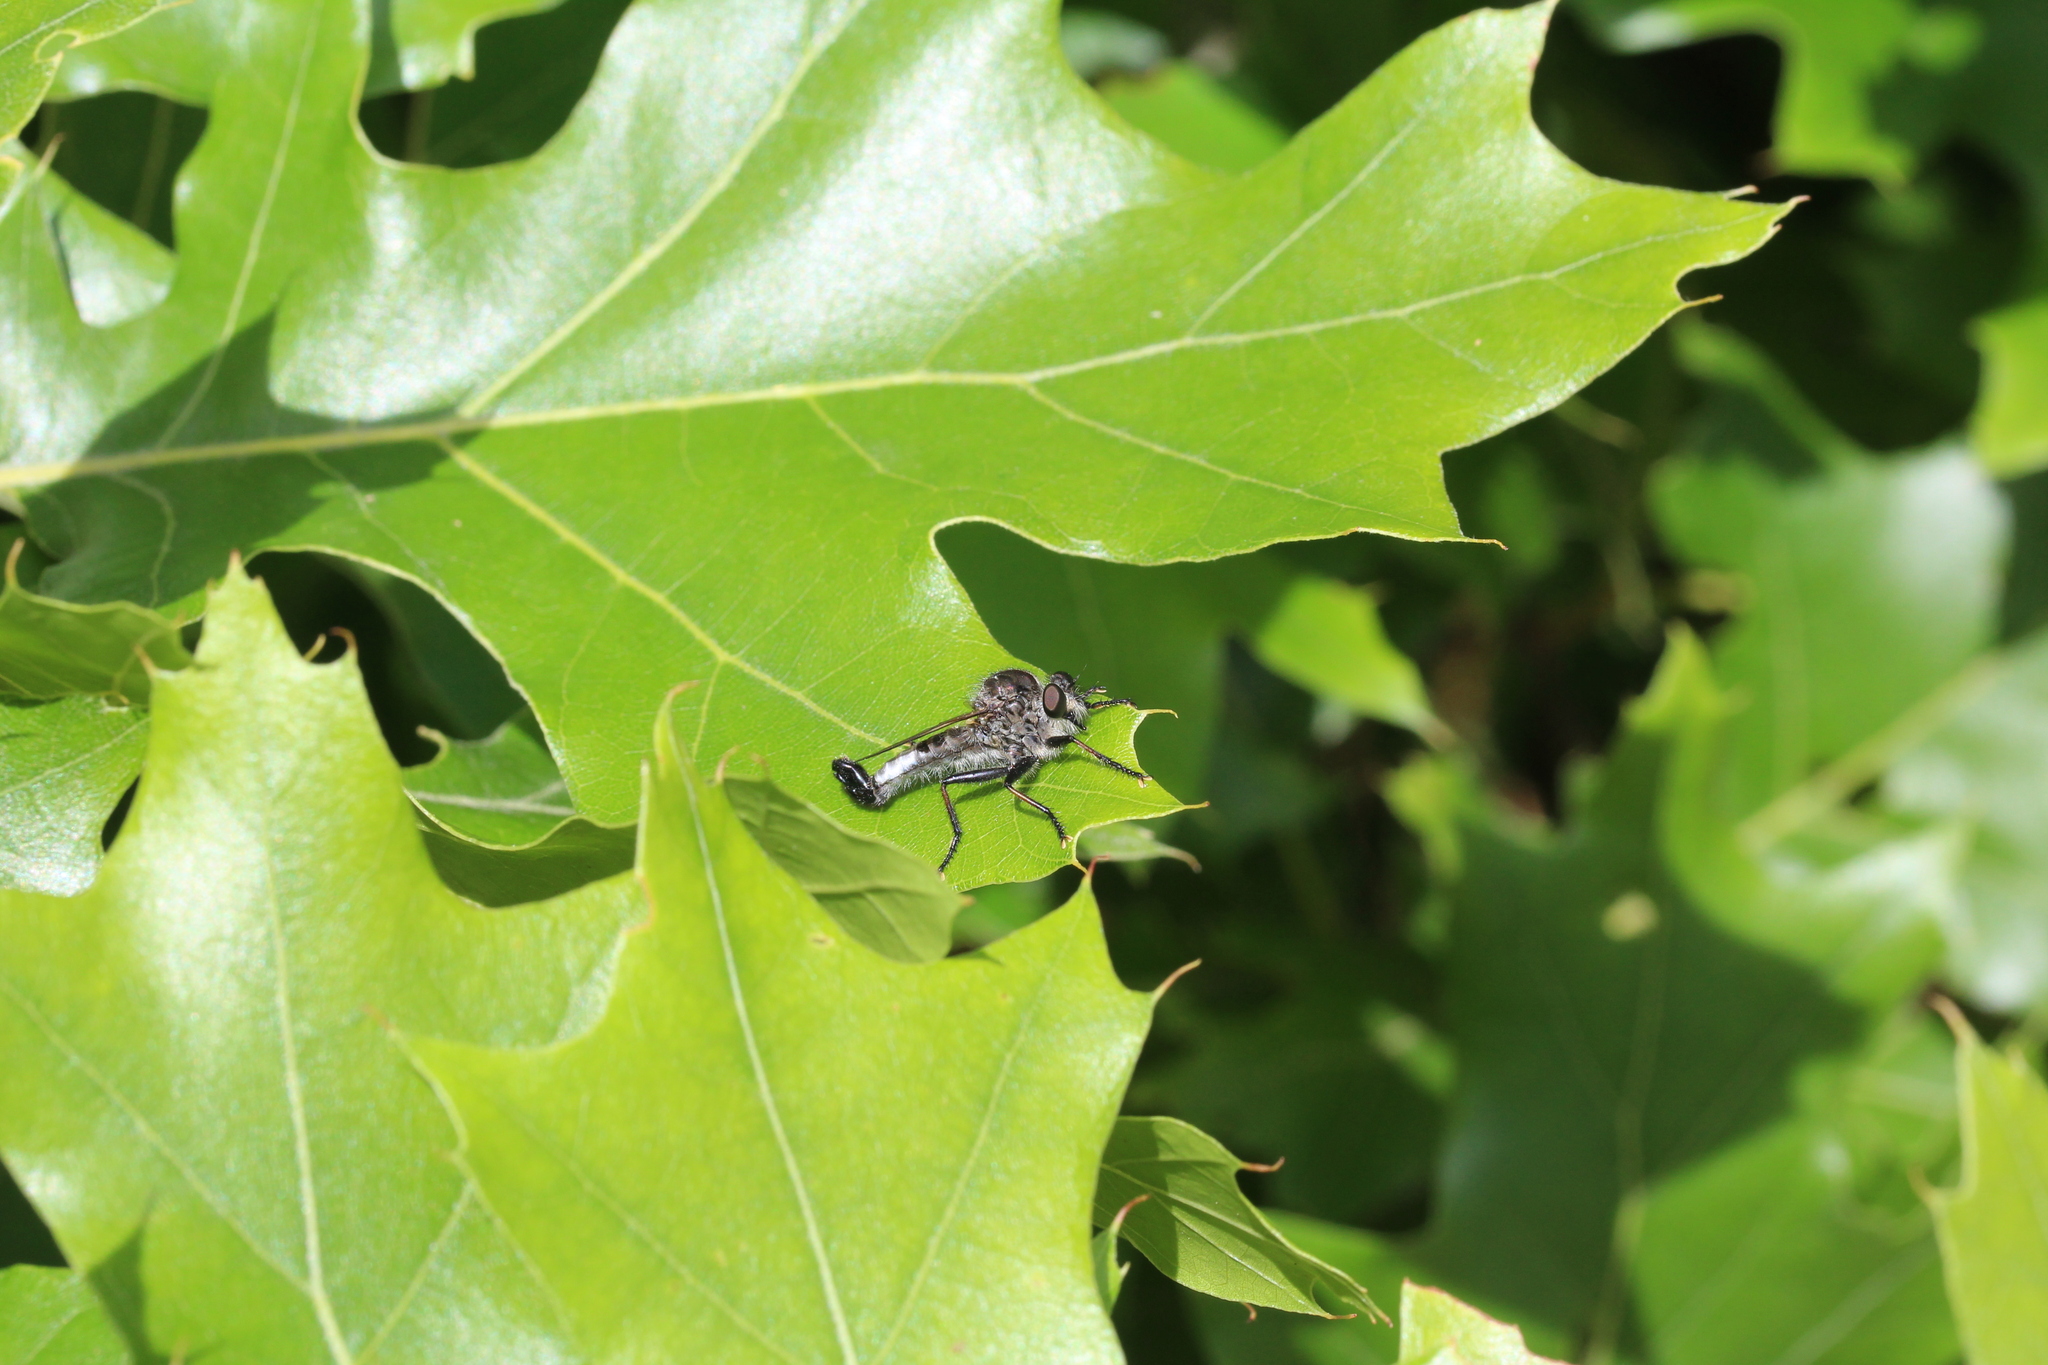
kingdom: Animalia
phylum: Arthropoda
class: Insecta
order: Diptera
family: Asilidae
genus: Efferia
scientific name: Efferia aestuans
